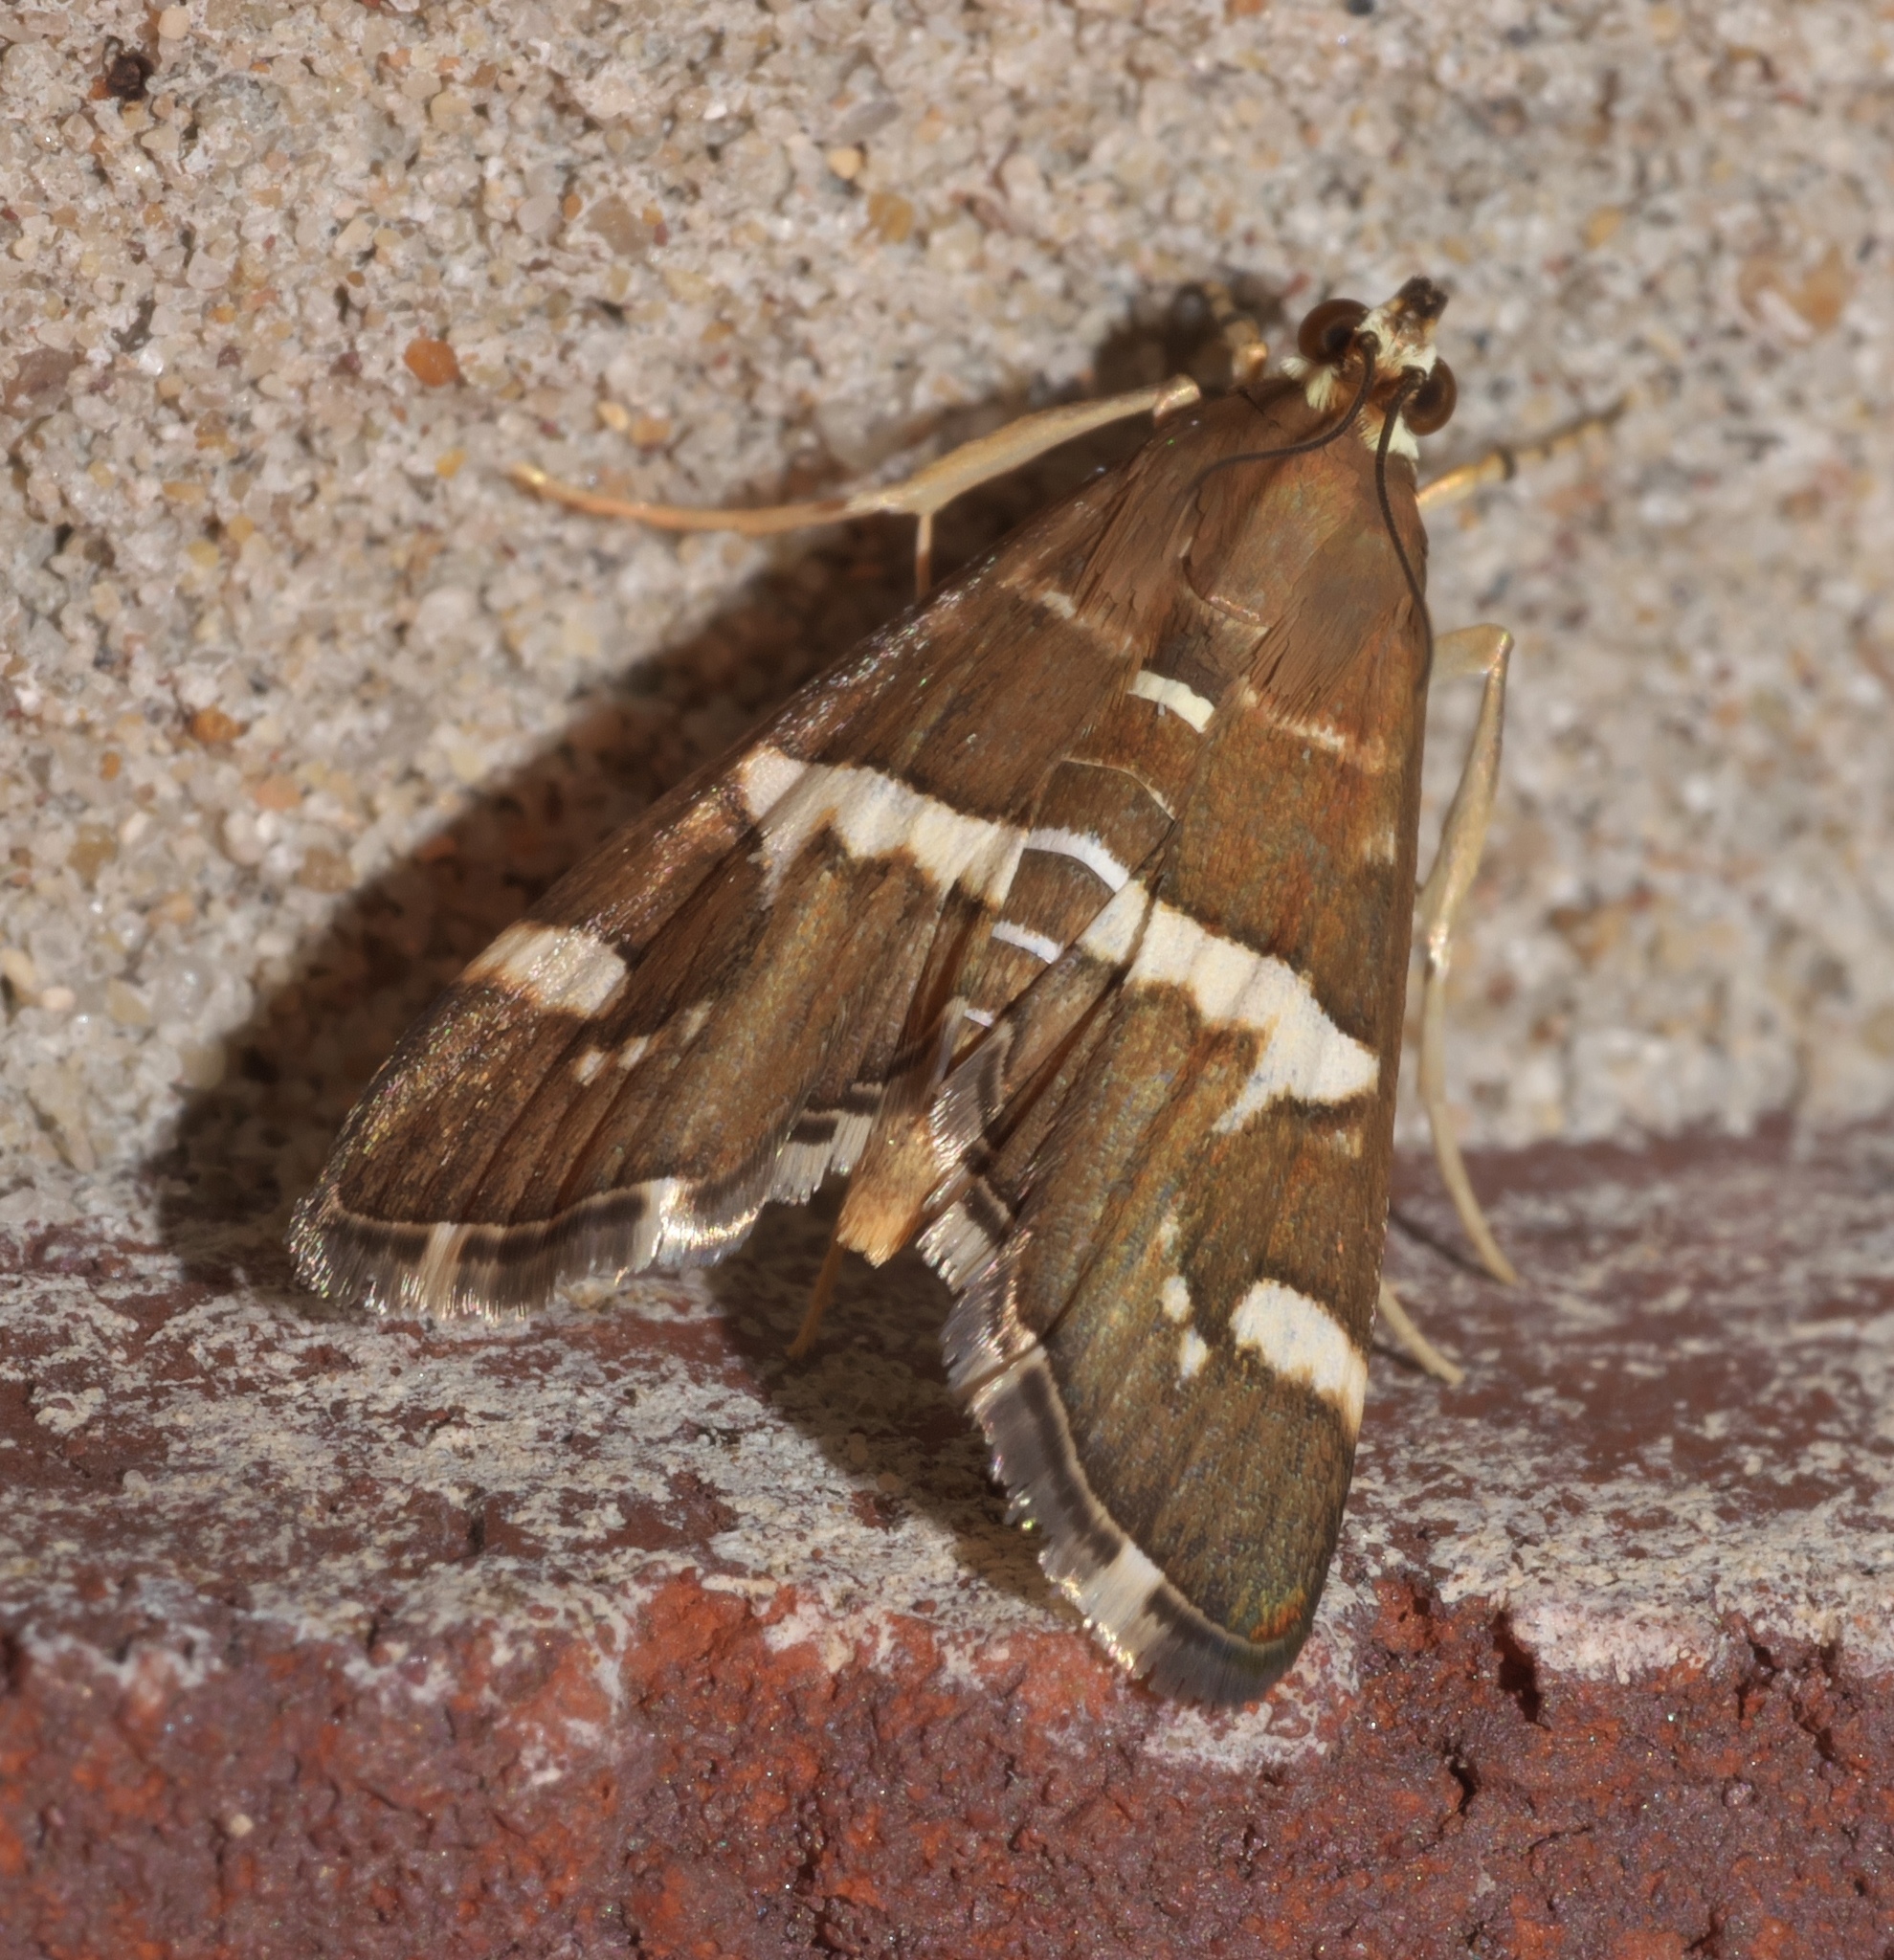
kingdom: Animalia
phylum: Arthropoda
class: Insecta
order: Lepidoptera
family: Crambidae
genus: Spoladea
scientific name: Spoladea recurvalis
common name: Beet webworm moth
